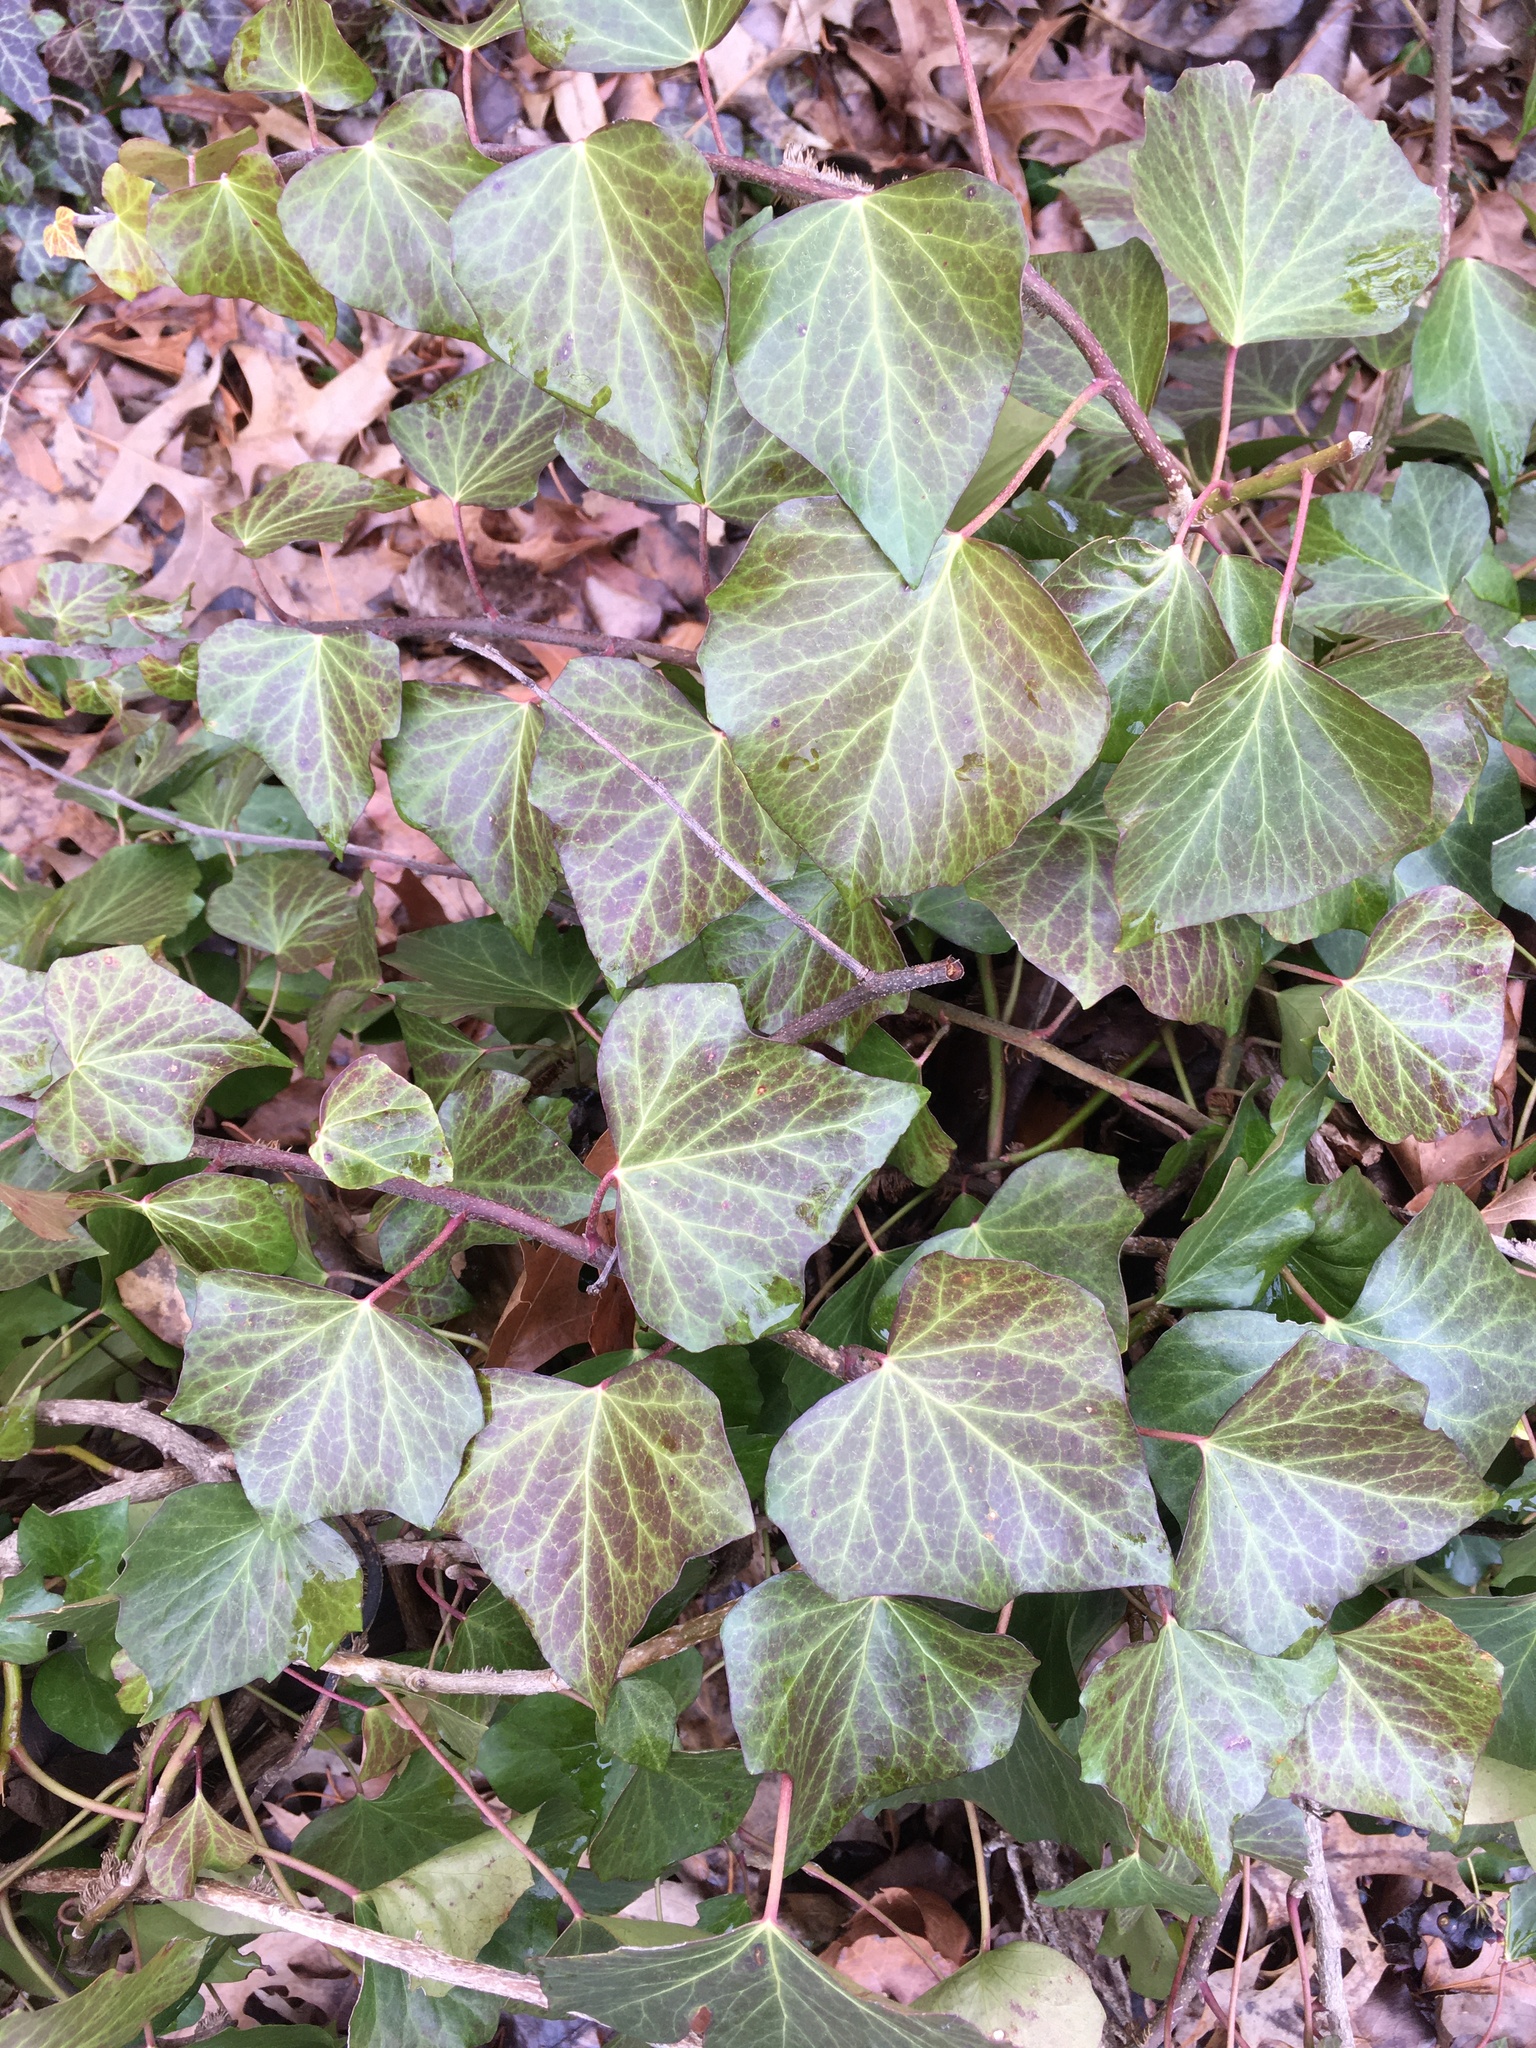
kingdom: Plantae
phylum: Tracheophyta
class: Magnoliopsida
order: Apiales
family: Araliaceae
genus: Hedera
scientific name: Hedera helix
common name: Ivy
